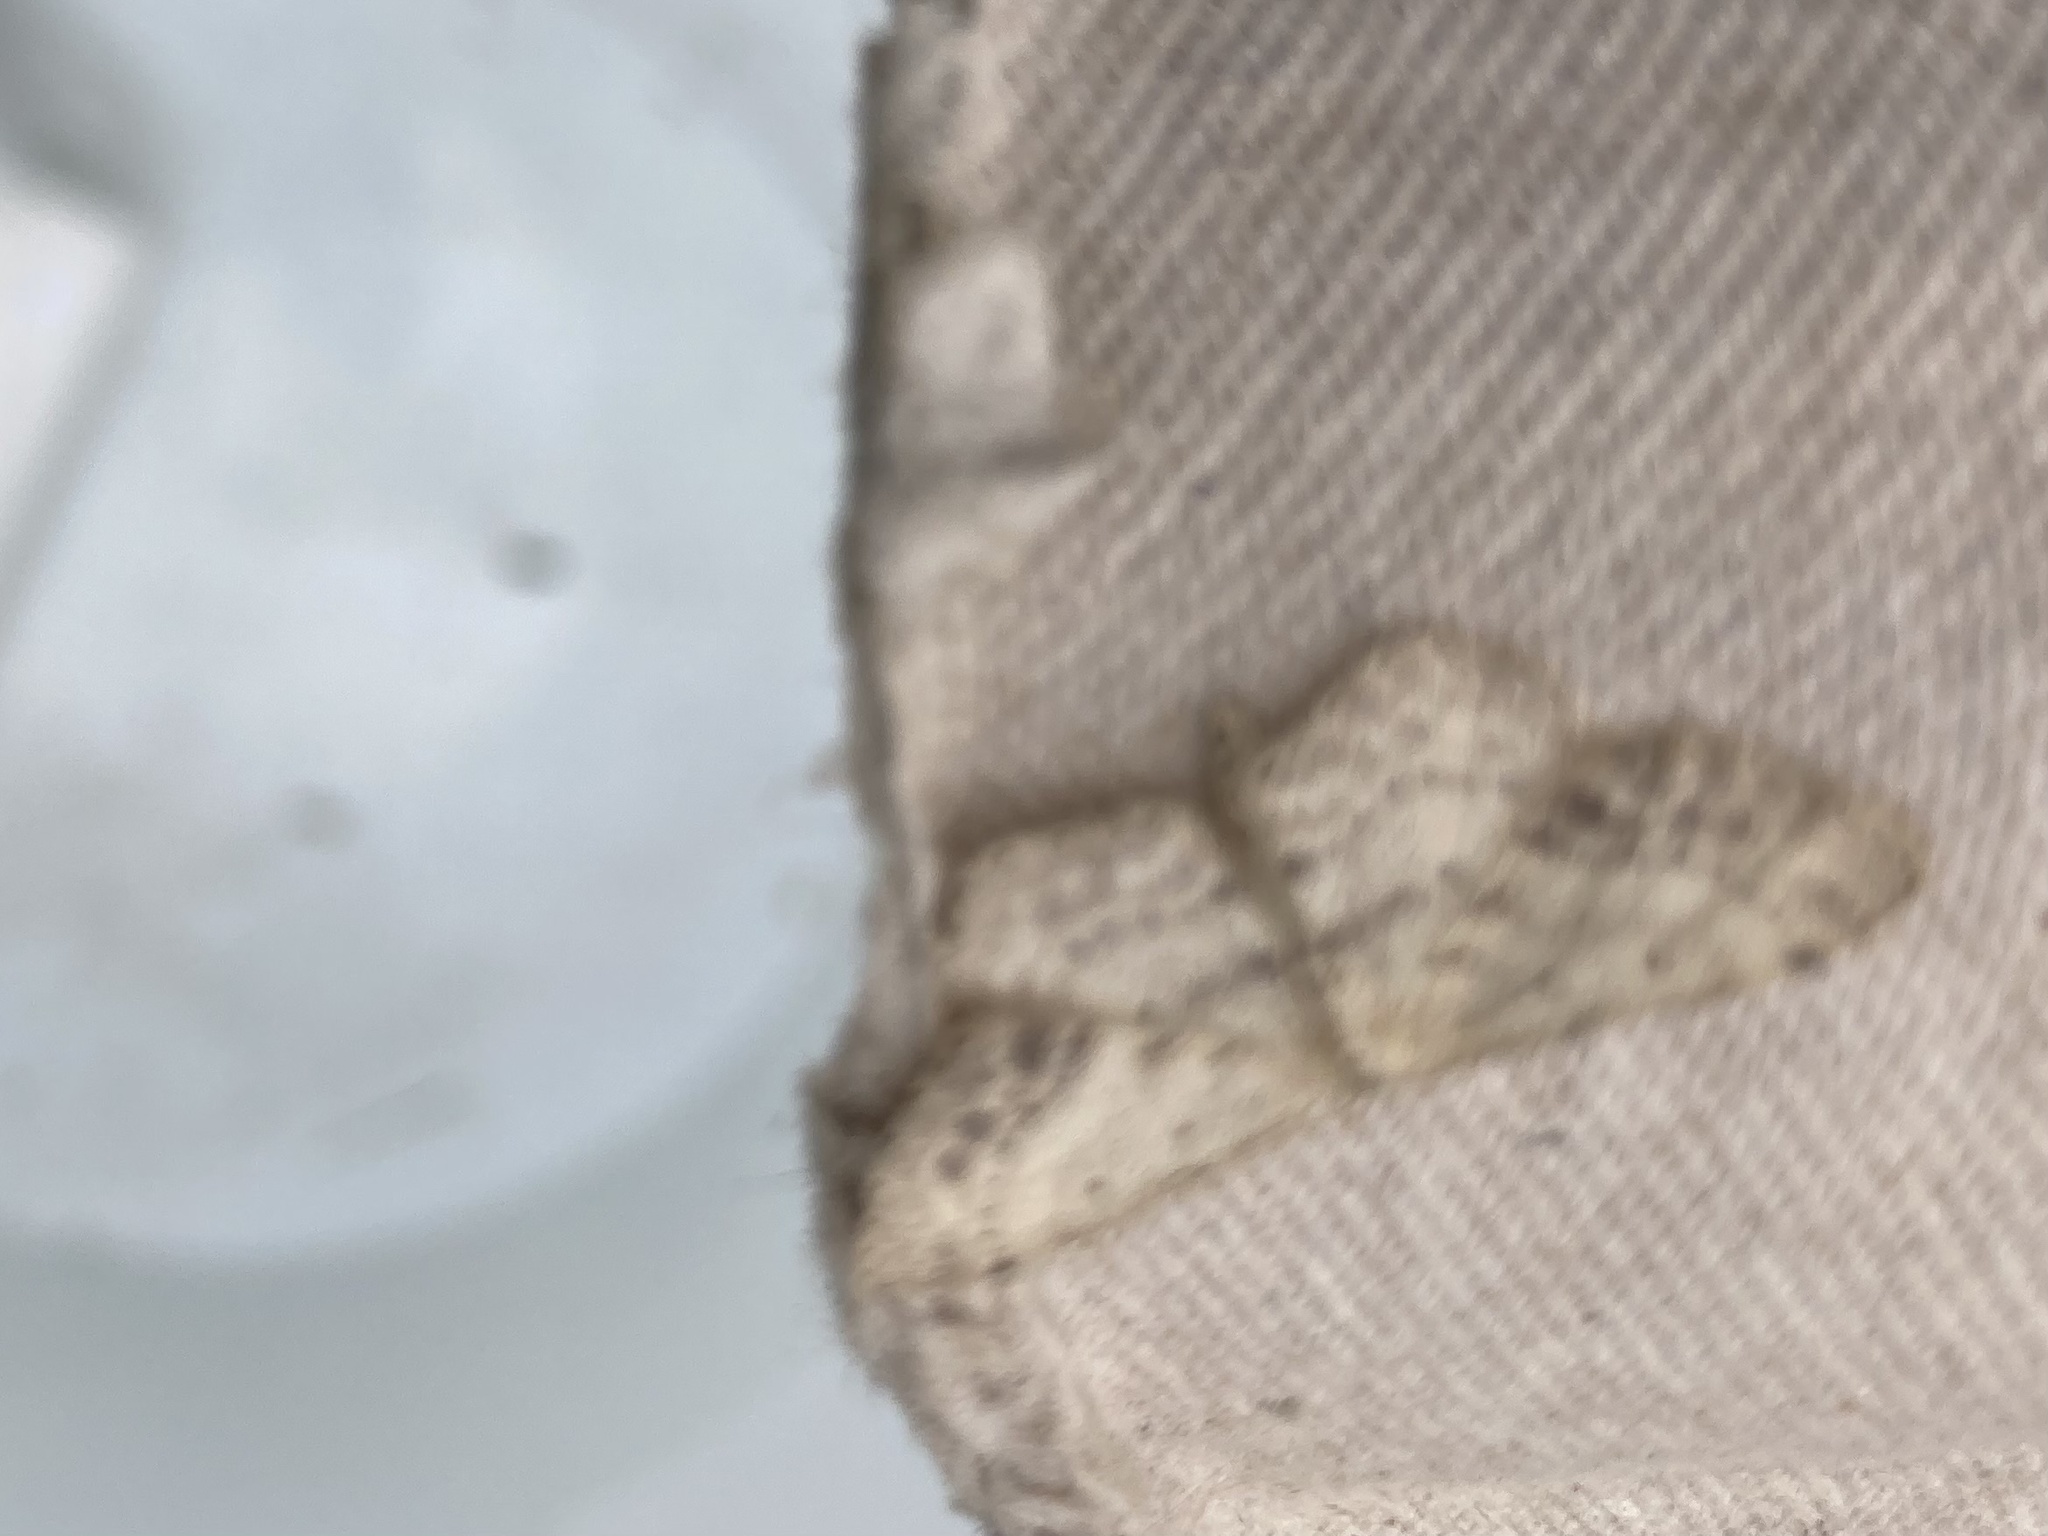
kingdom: Animalia
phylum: Arthropoda
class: Insecta
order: Lepidoptera
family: Geometridae
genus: Idaea
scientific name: Idaea dimidiata
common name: Single-dotted wave
